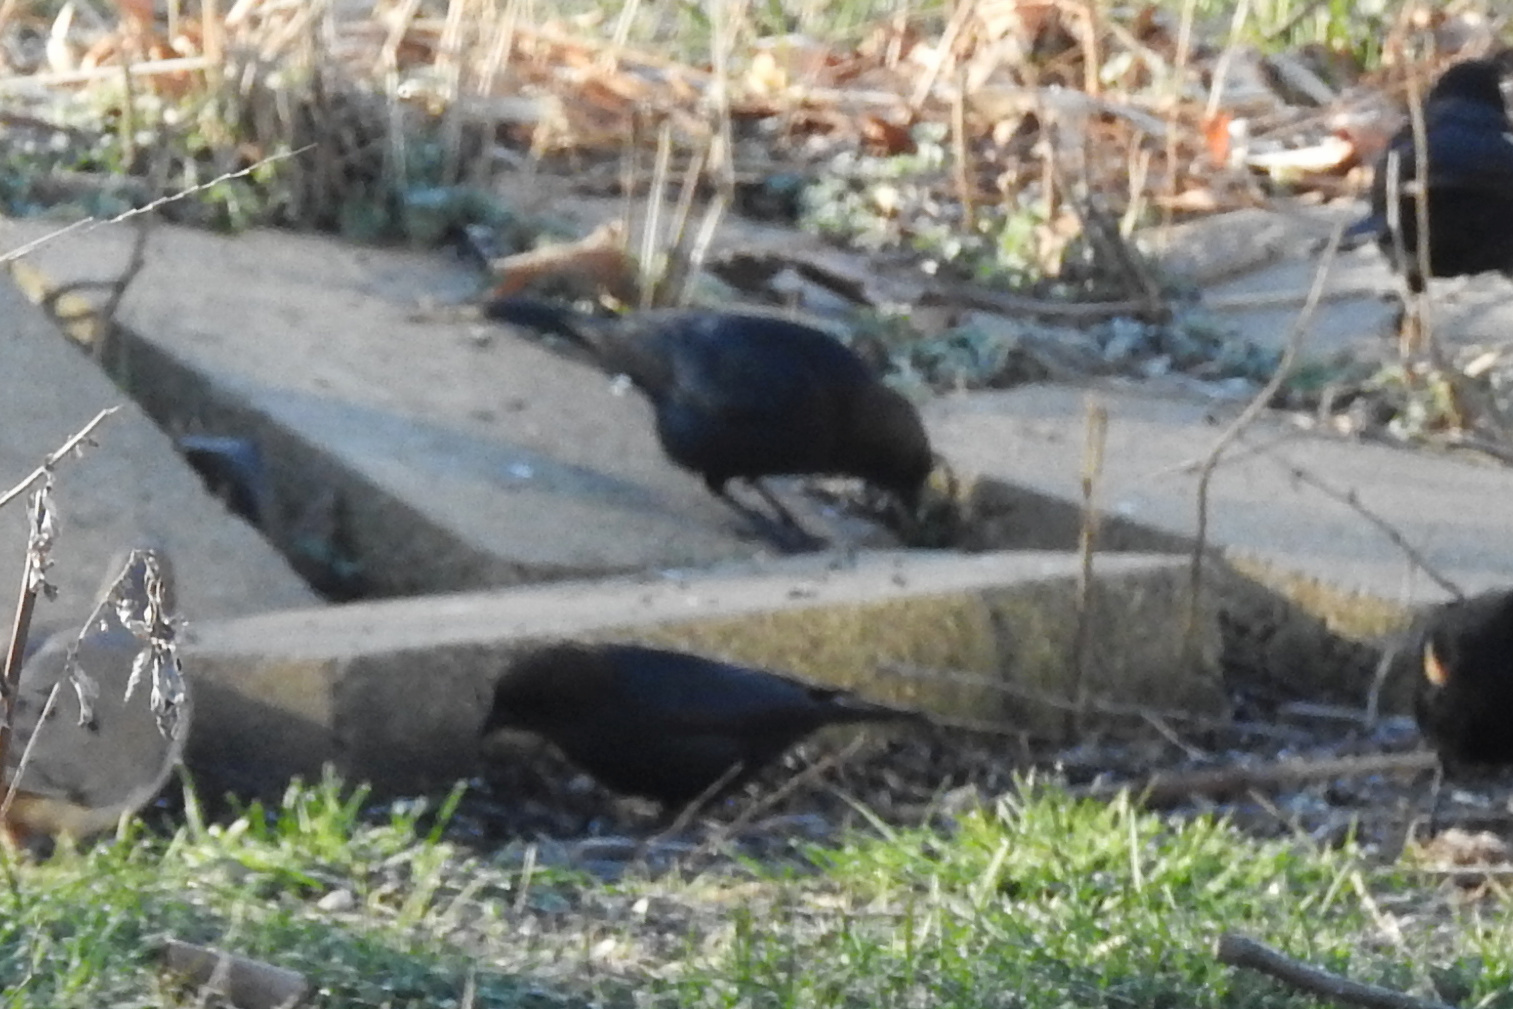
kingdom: Animalia
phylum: Chordata
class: Aves
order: Passeriformes
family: Icteridae
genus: Molothrus
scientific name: Molothrus ater
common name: Brown-headed cowbird
